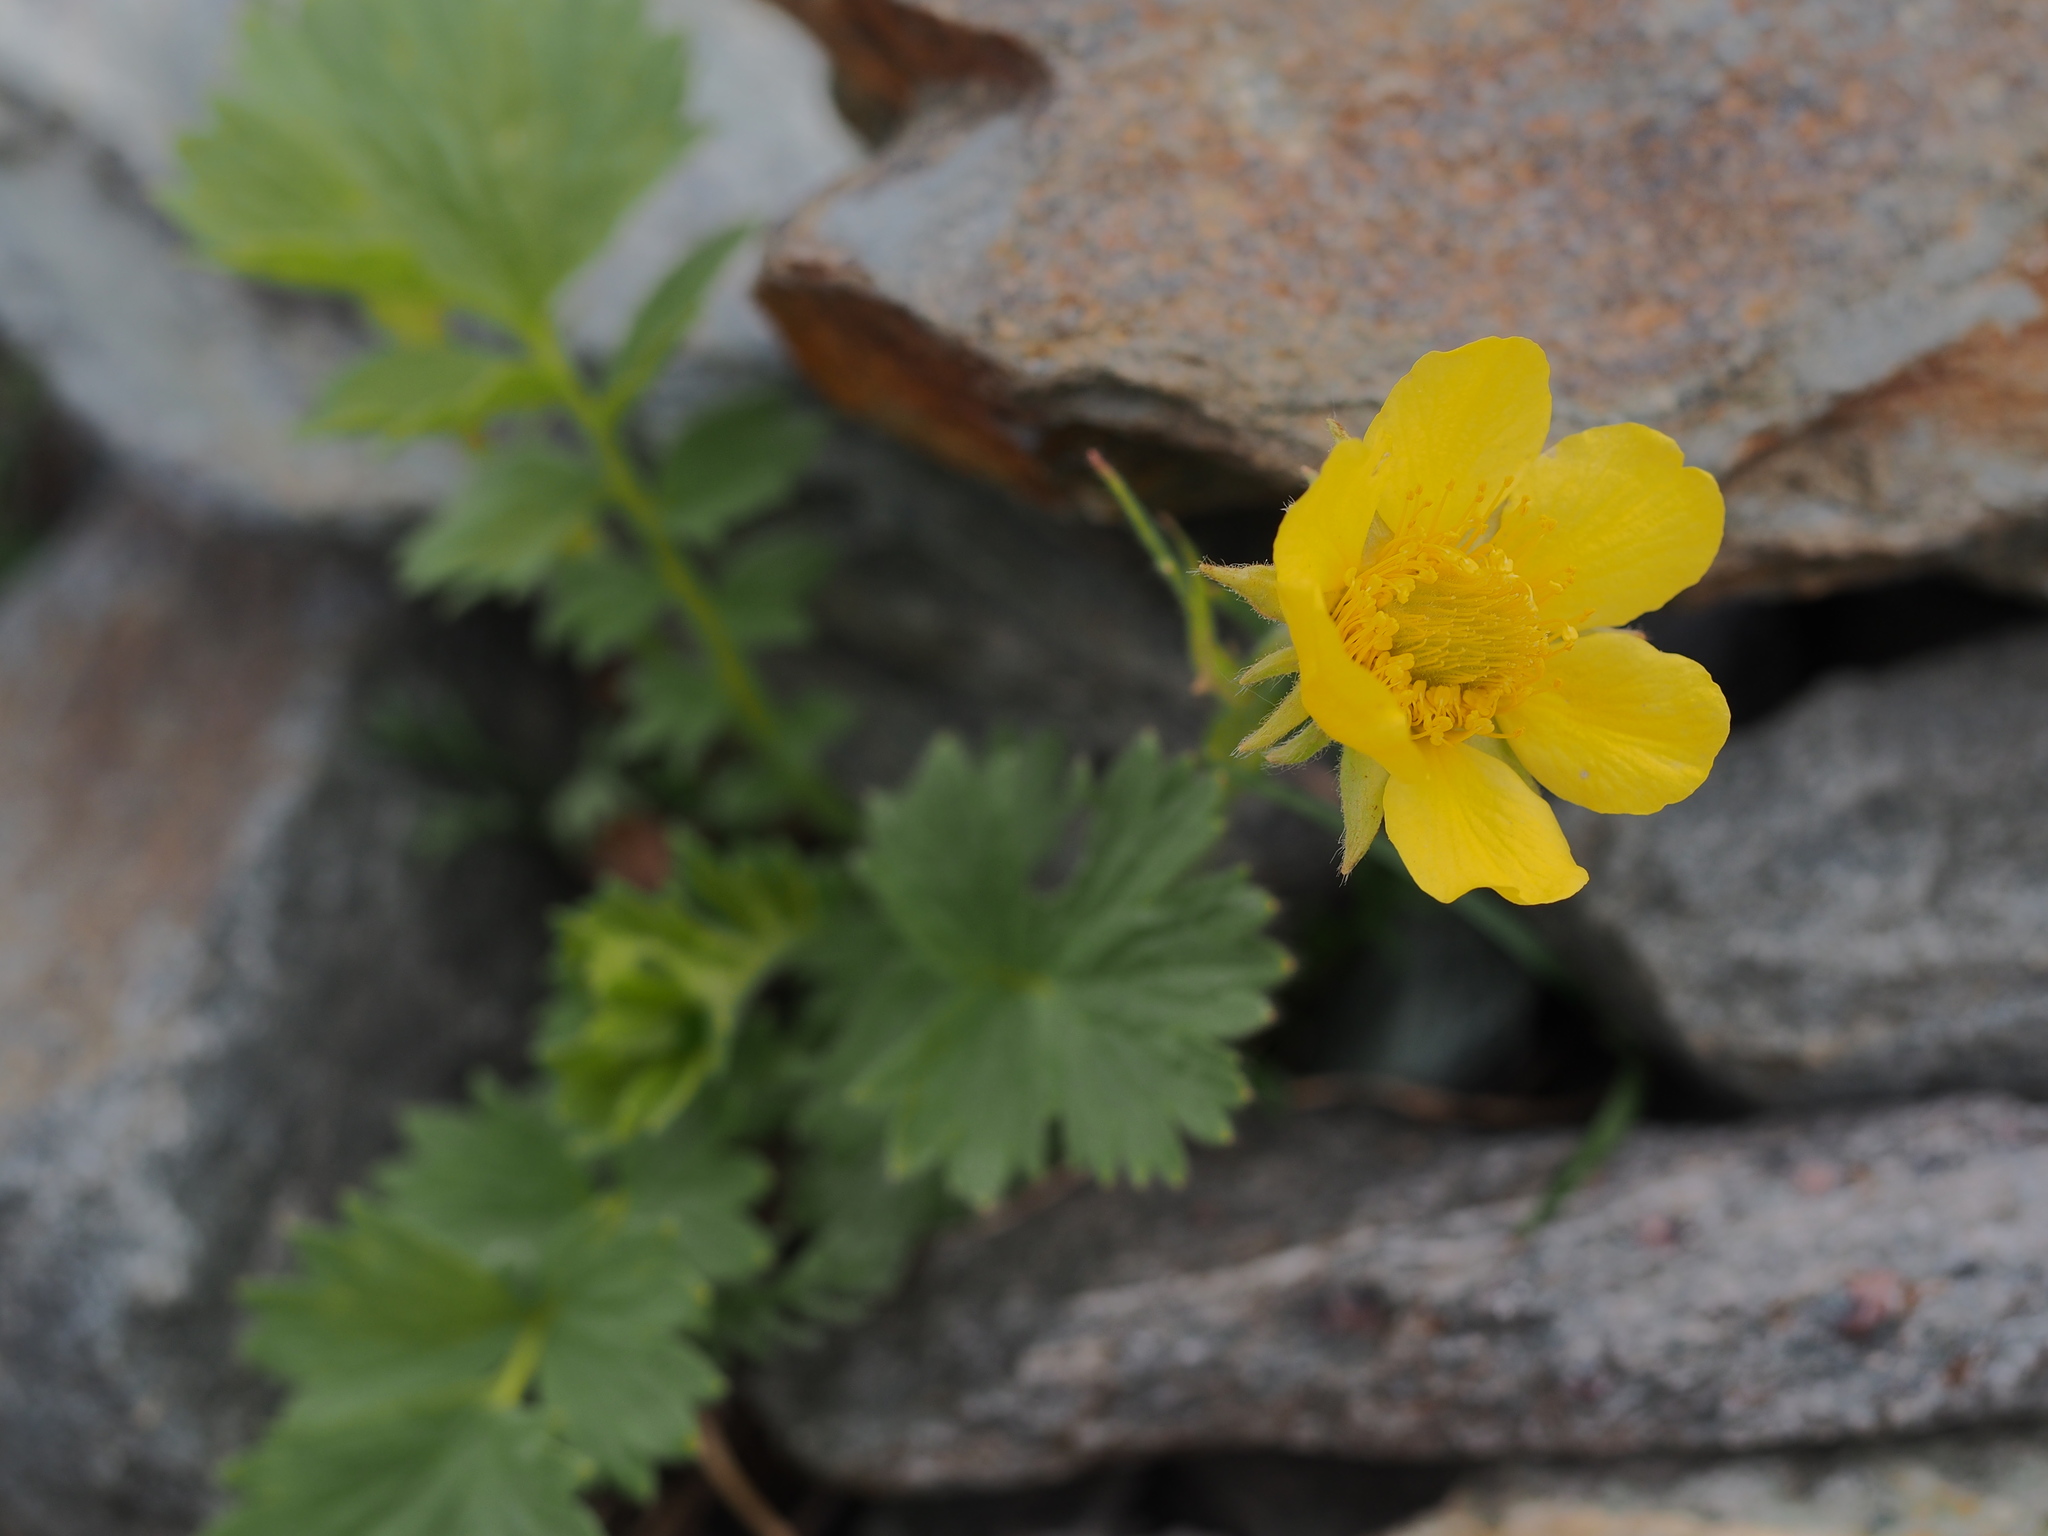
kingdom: Plantae
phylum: Tracheophyta
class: Magnoliopsida
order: Rosales
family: Rosaceae
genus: Geum
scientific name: Geum reptans
